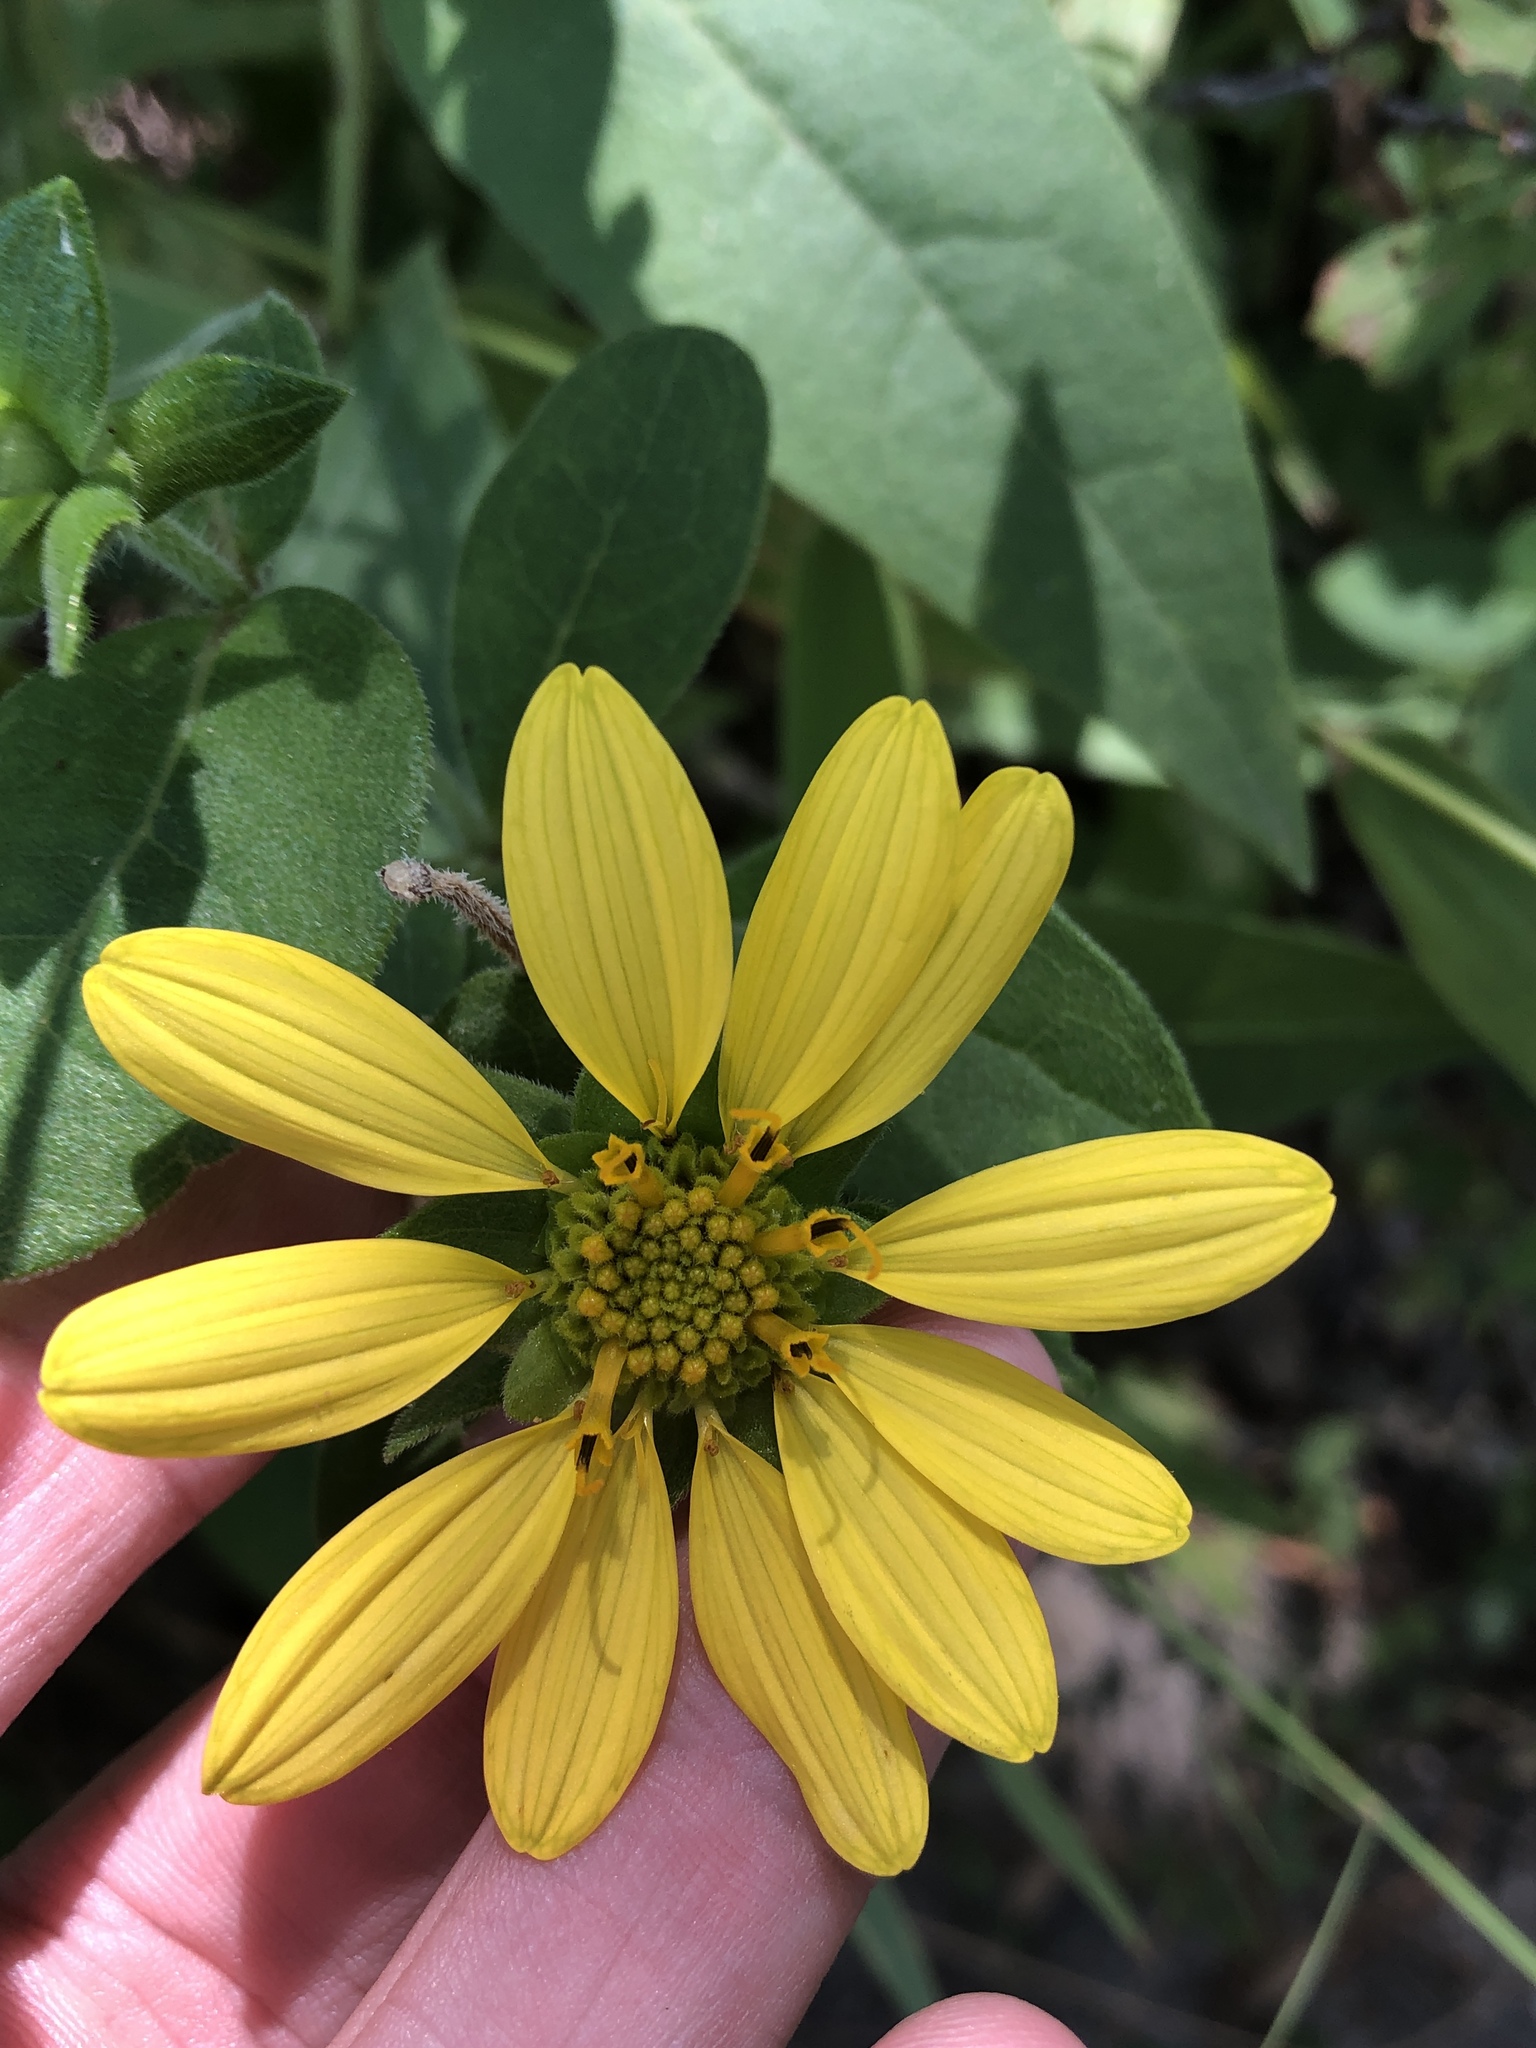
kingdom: Plantae
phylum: Tracheophyta
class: Magnoliopsida
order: Asterales
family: Asteraceae
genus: Silphium
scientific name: Silphium asteriscus
